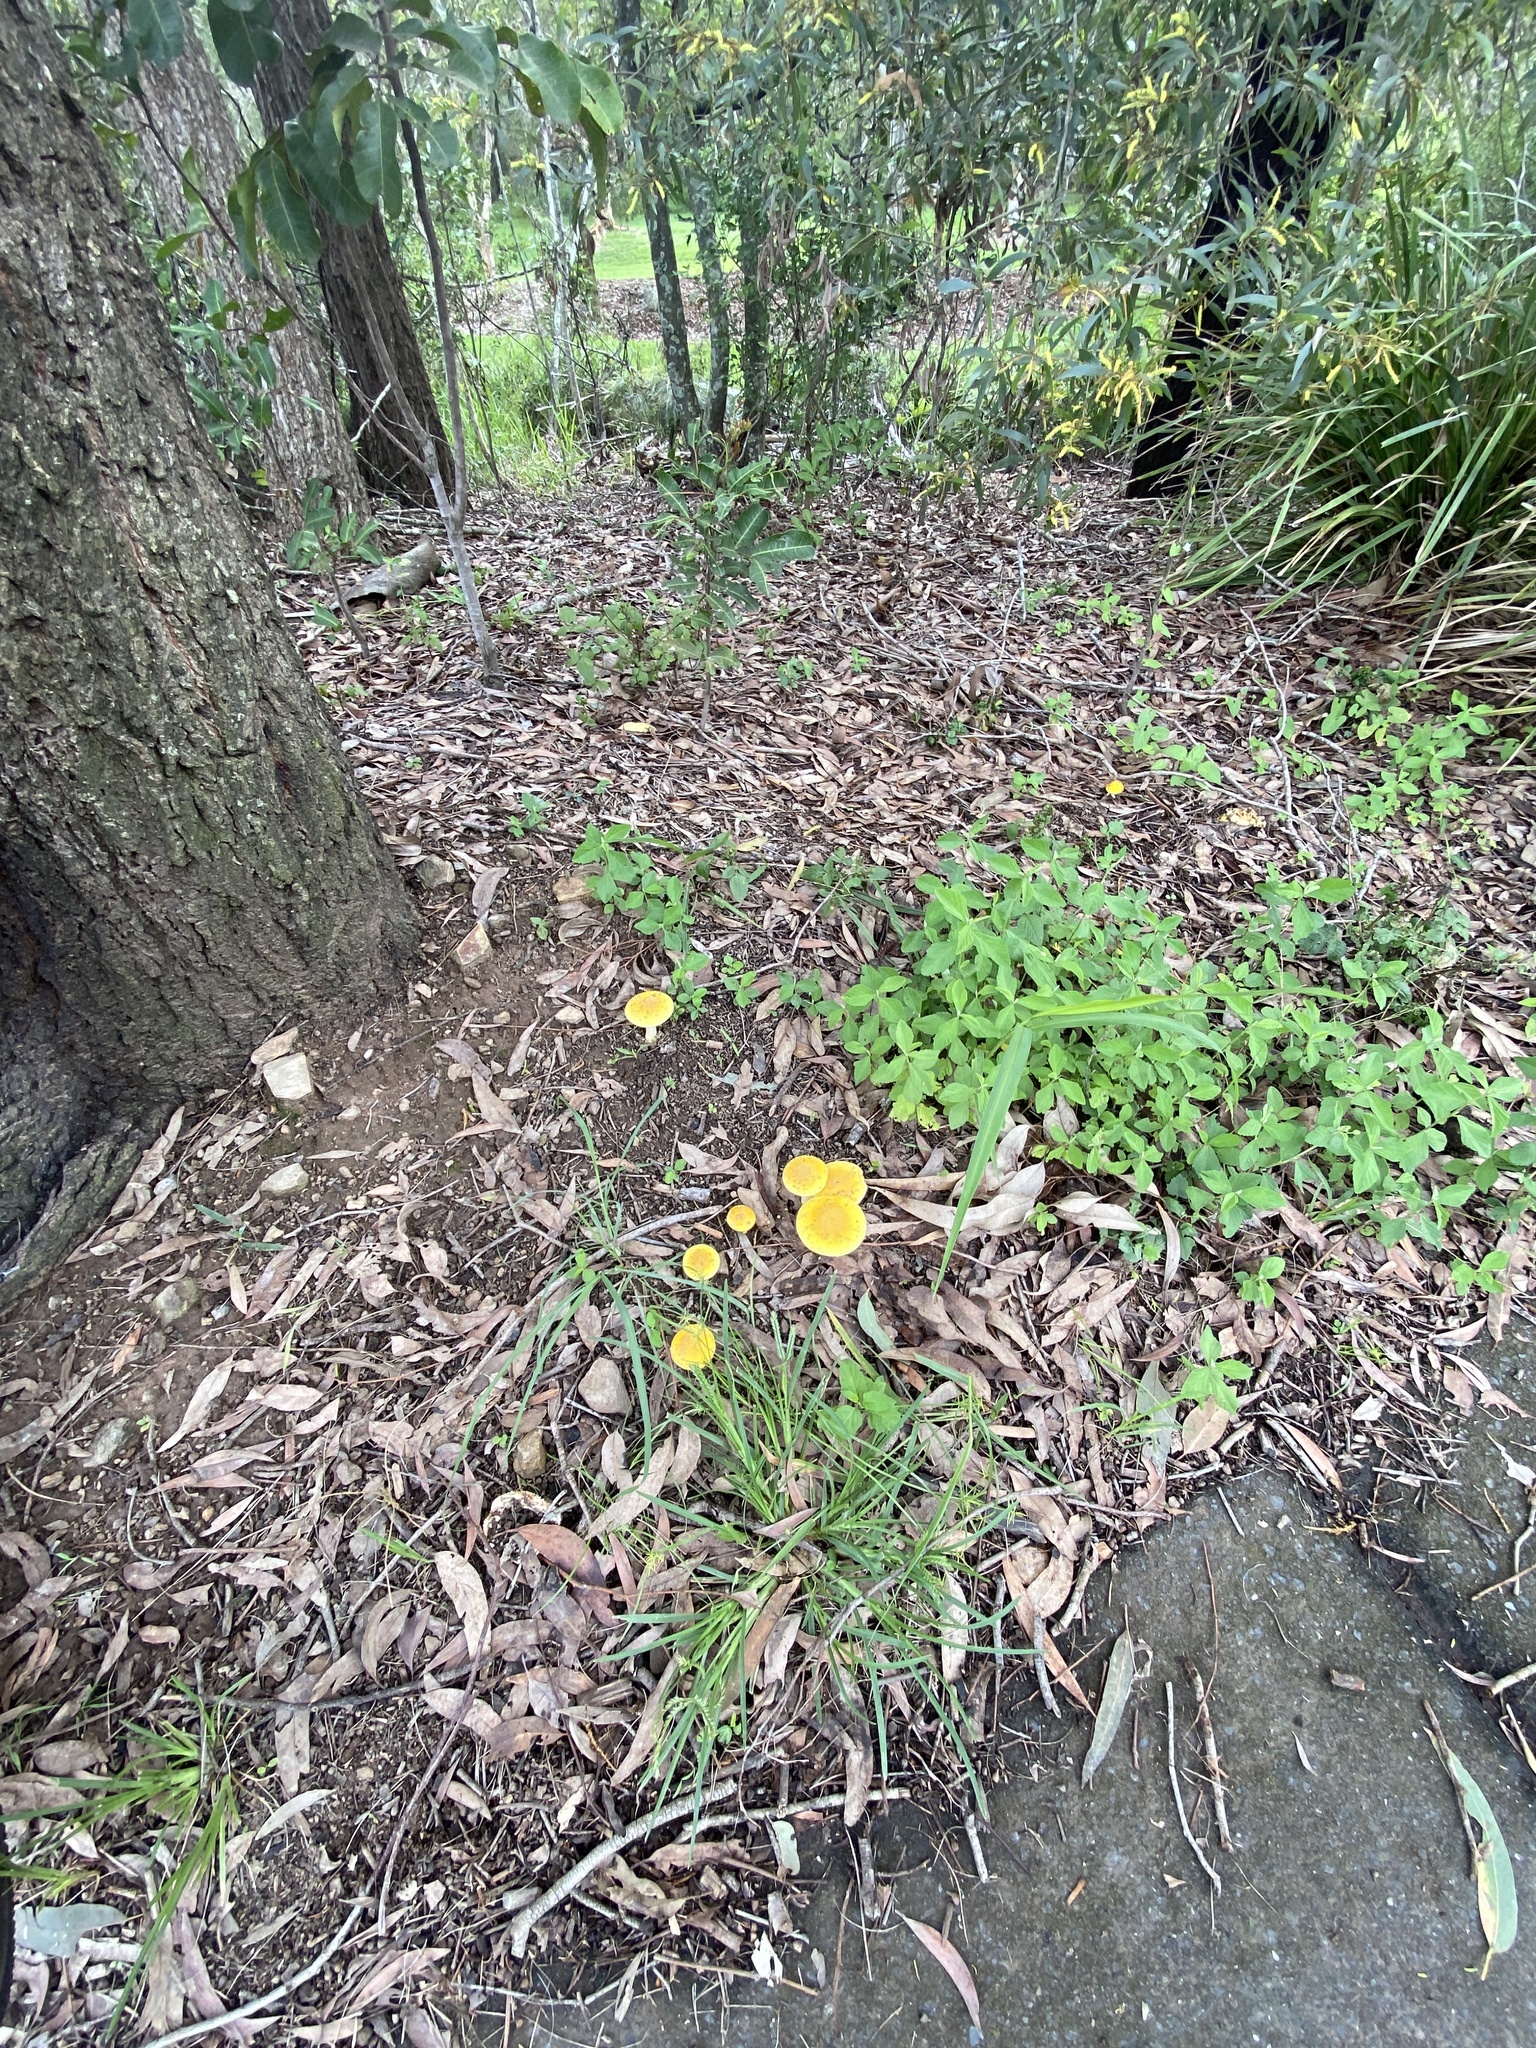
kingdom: Fungi
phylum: Basidiomycota
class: Agaricomycetes
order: Agaricales
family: Amanitaceae
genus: Amanita
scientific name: Amanita flavella
